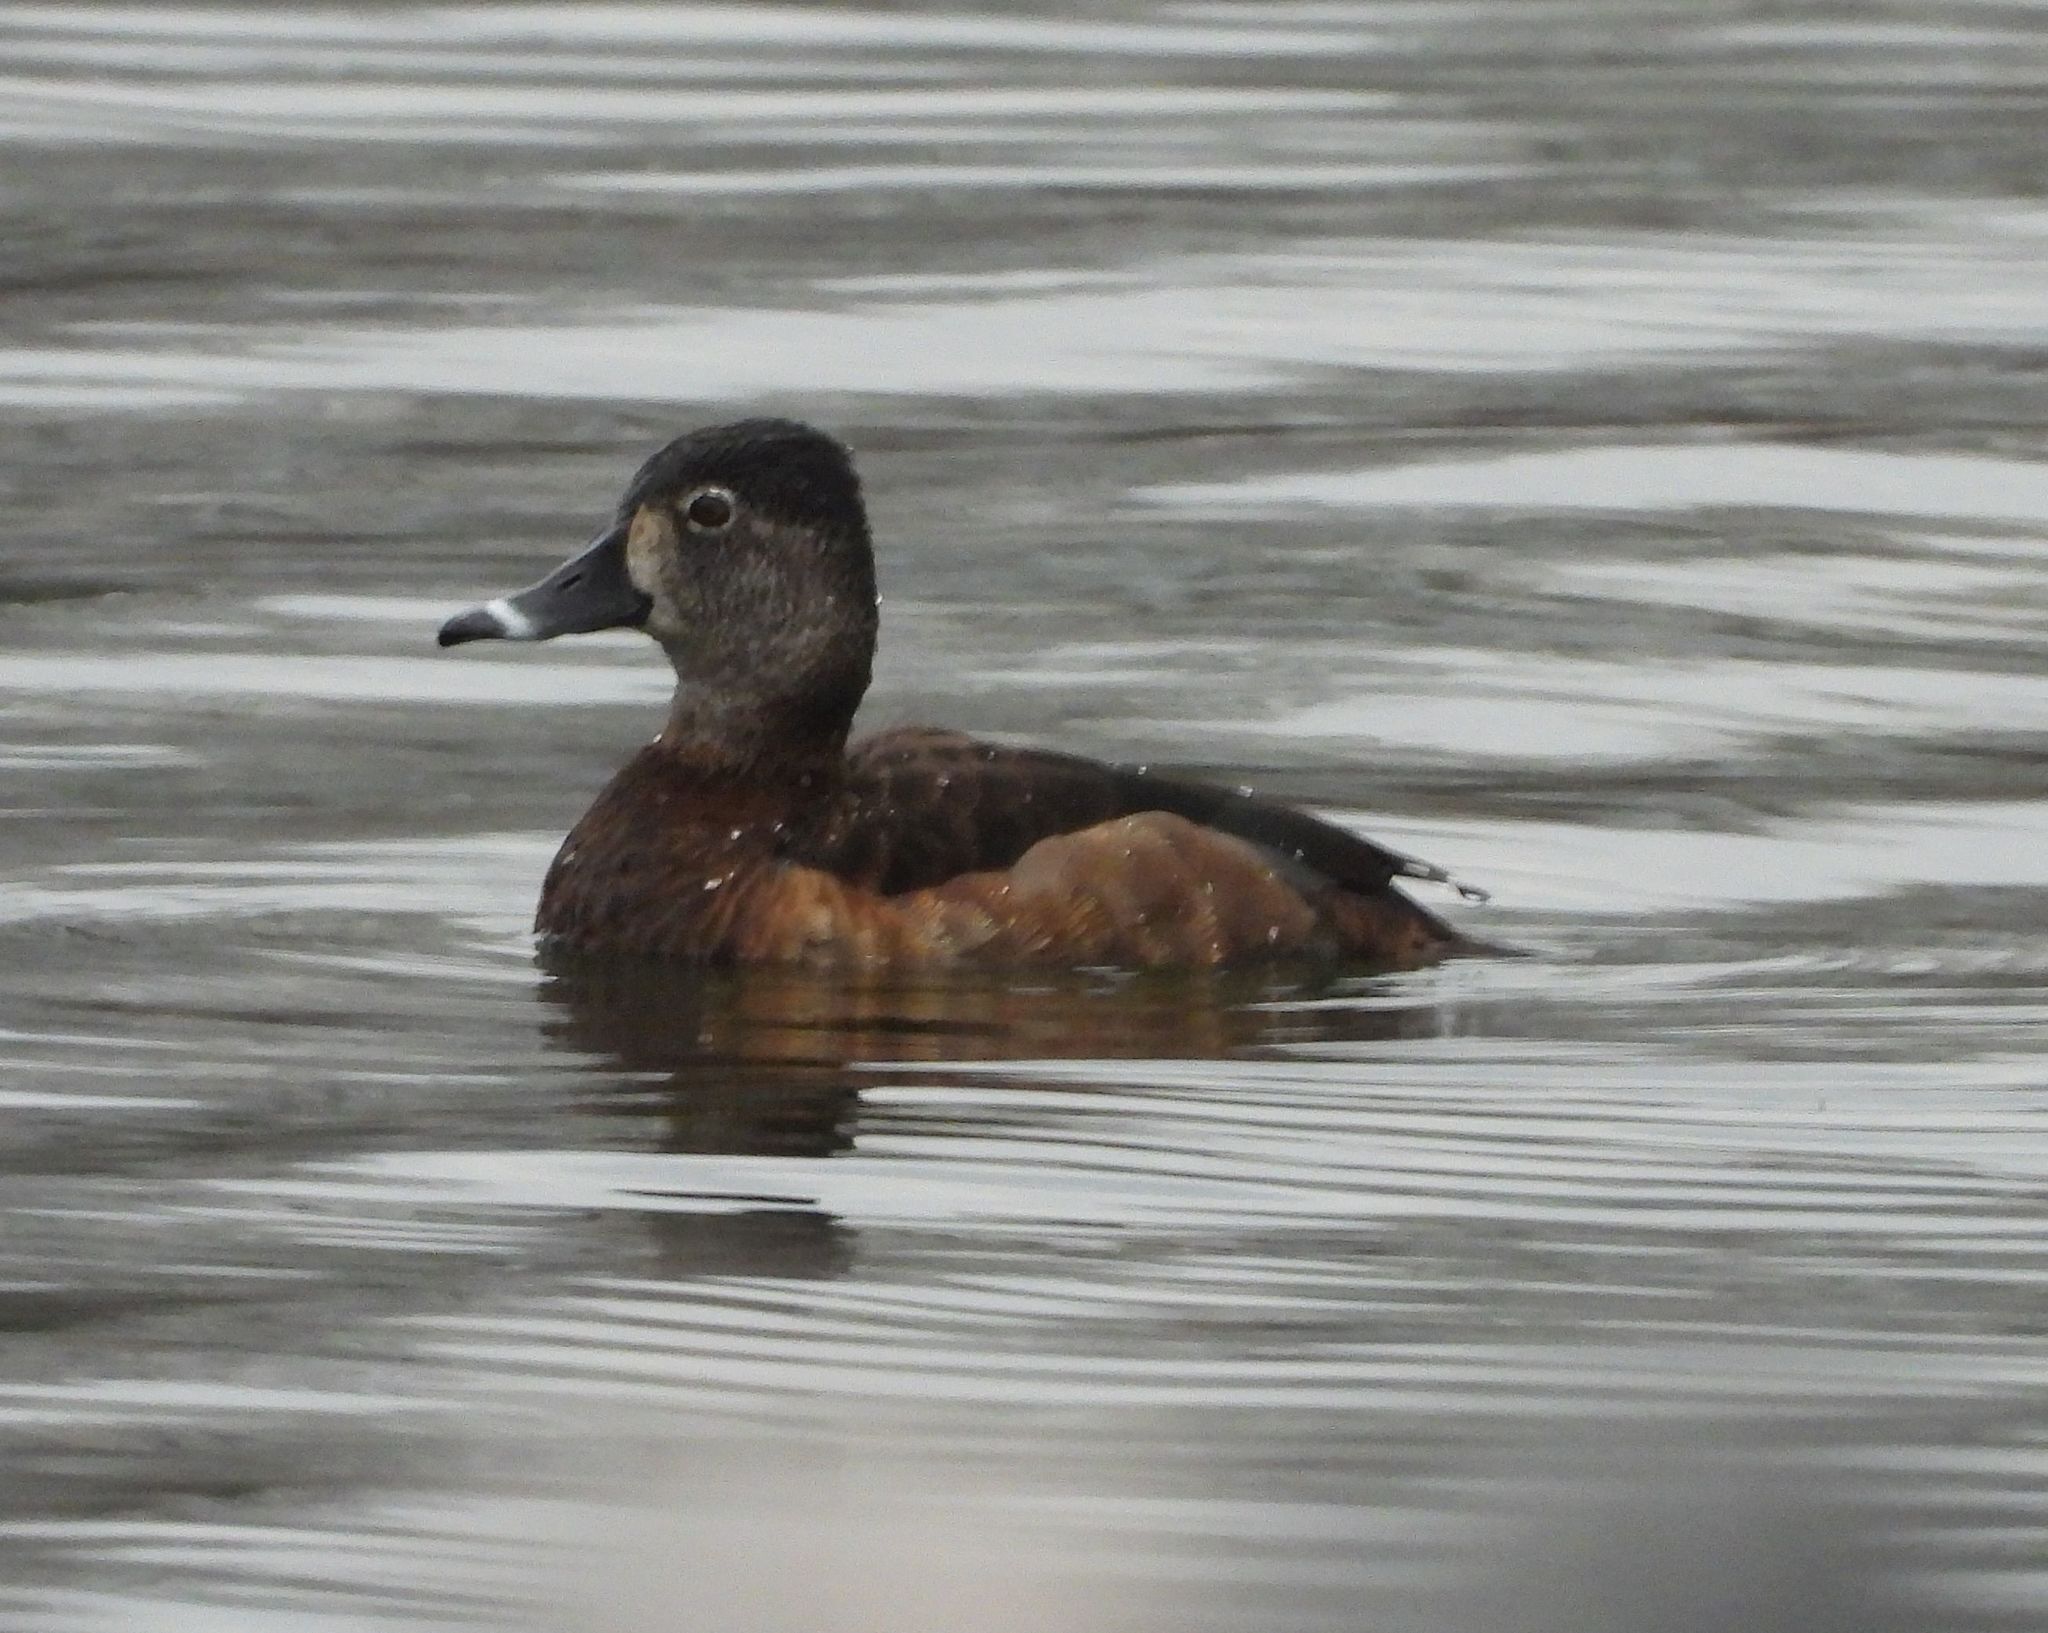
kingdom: Animalia
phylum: Chordata
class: Aves
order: Anseriformes
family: Anatidae
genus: Aythya
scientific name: Aythya collaris
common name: Ring-necked duck
